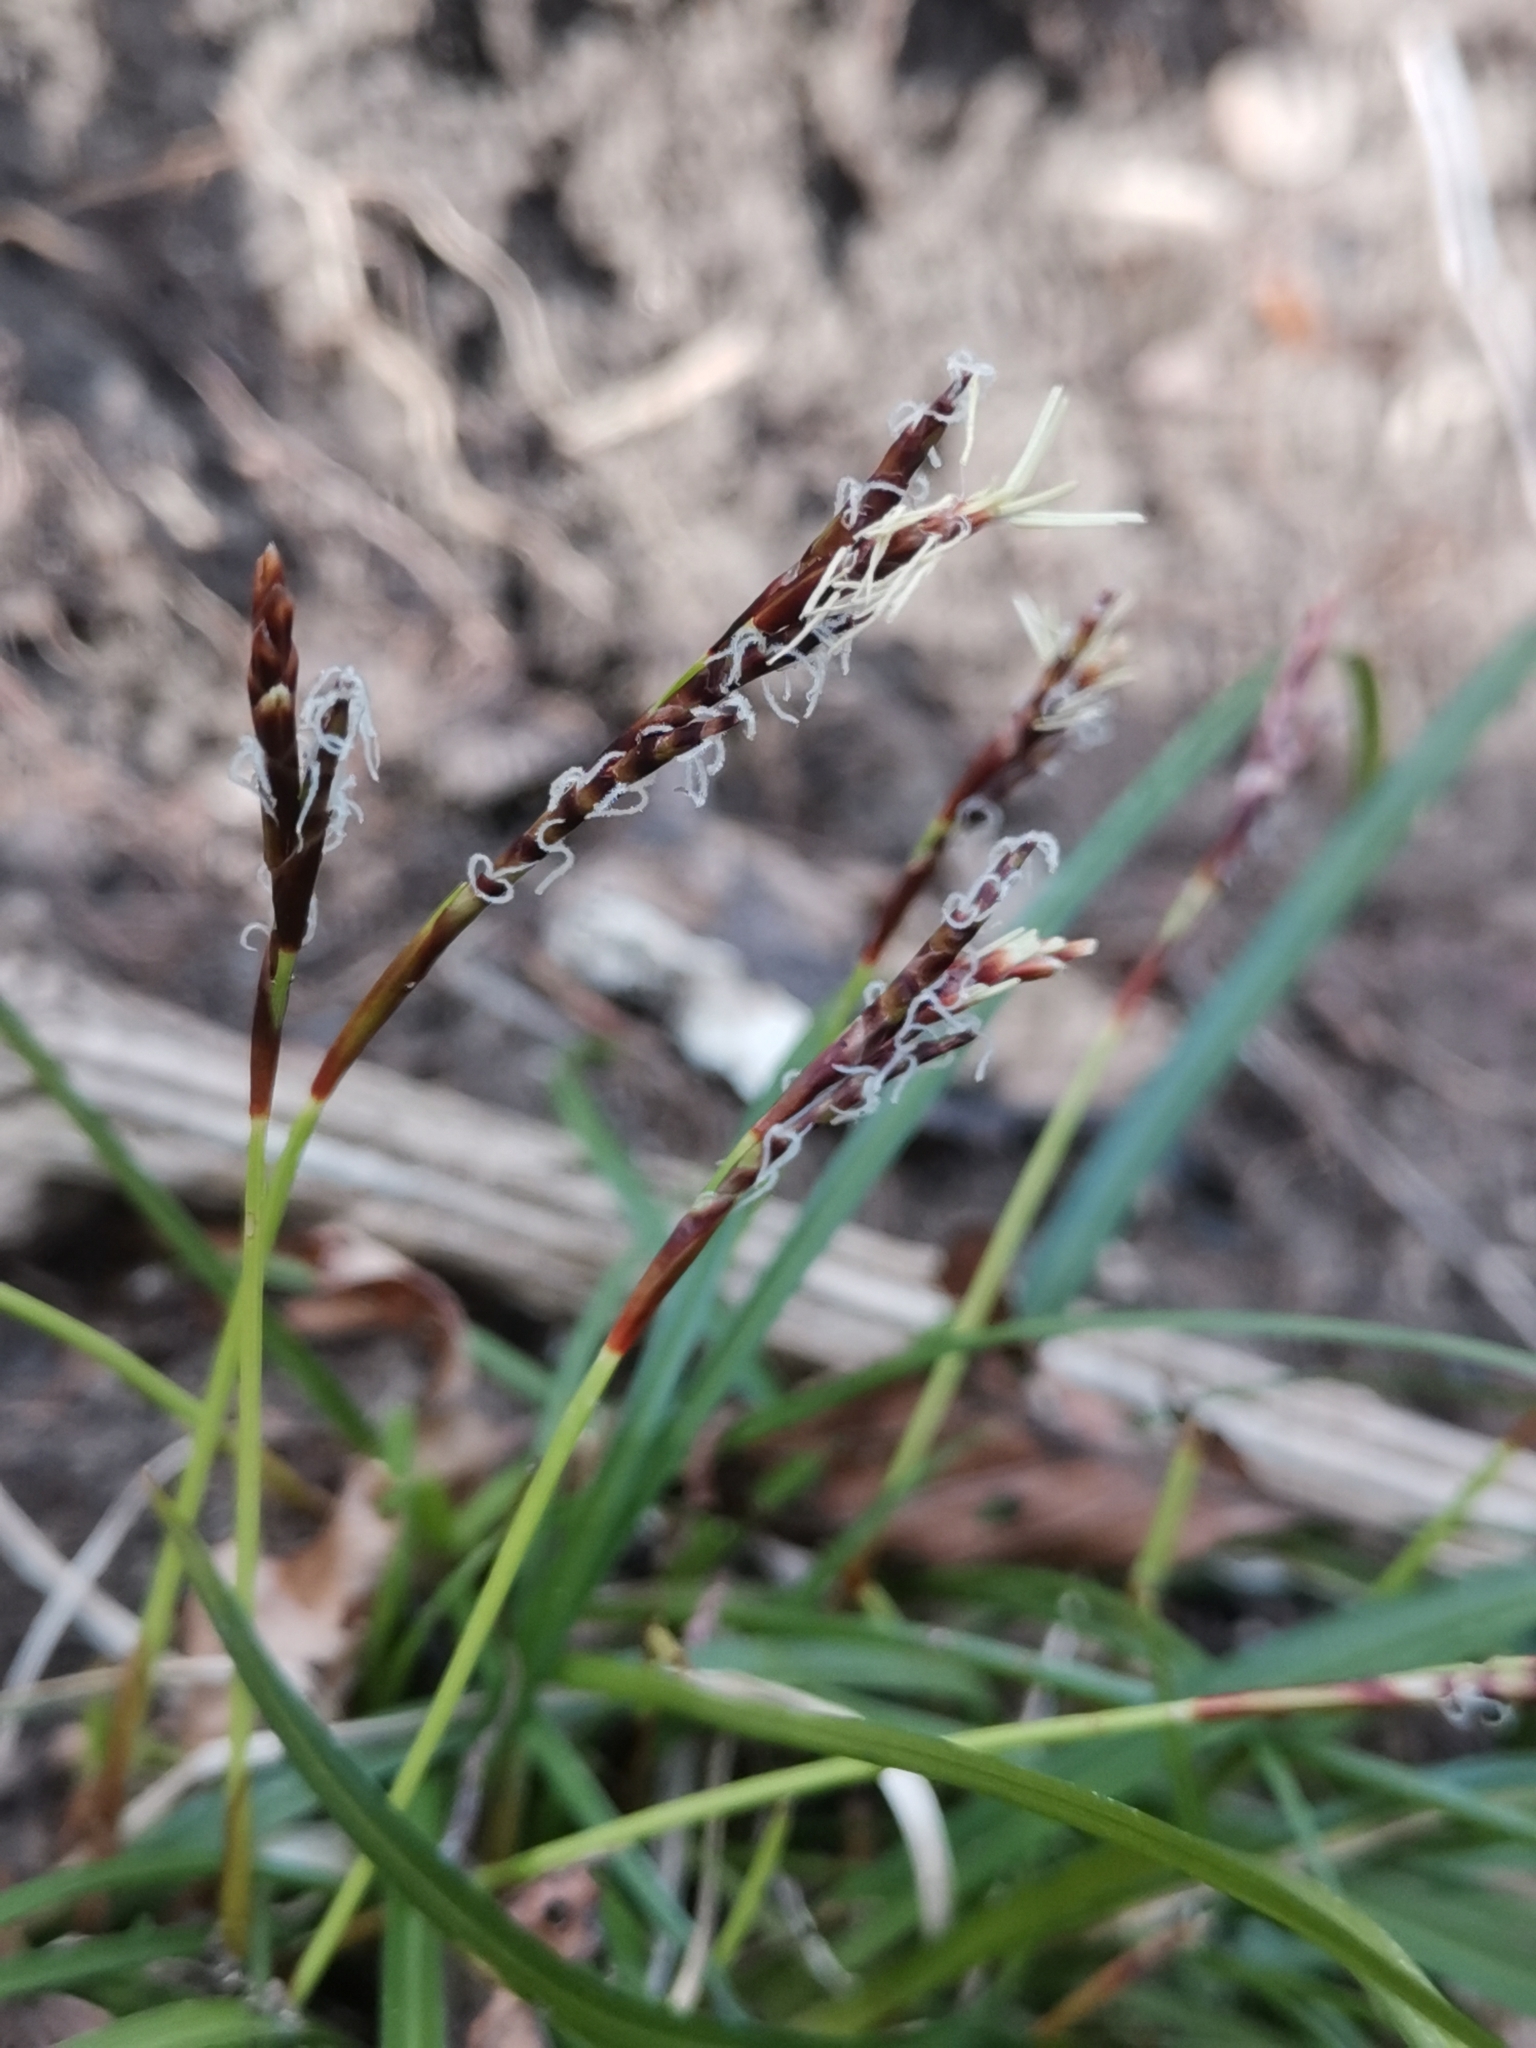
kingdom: Plantae
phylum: Tracheophyta
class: Liliopsida
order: Poales
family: Cyperaceae
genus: Carex
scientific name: Carex digitata
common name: Fingered sedge
